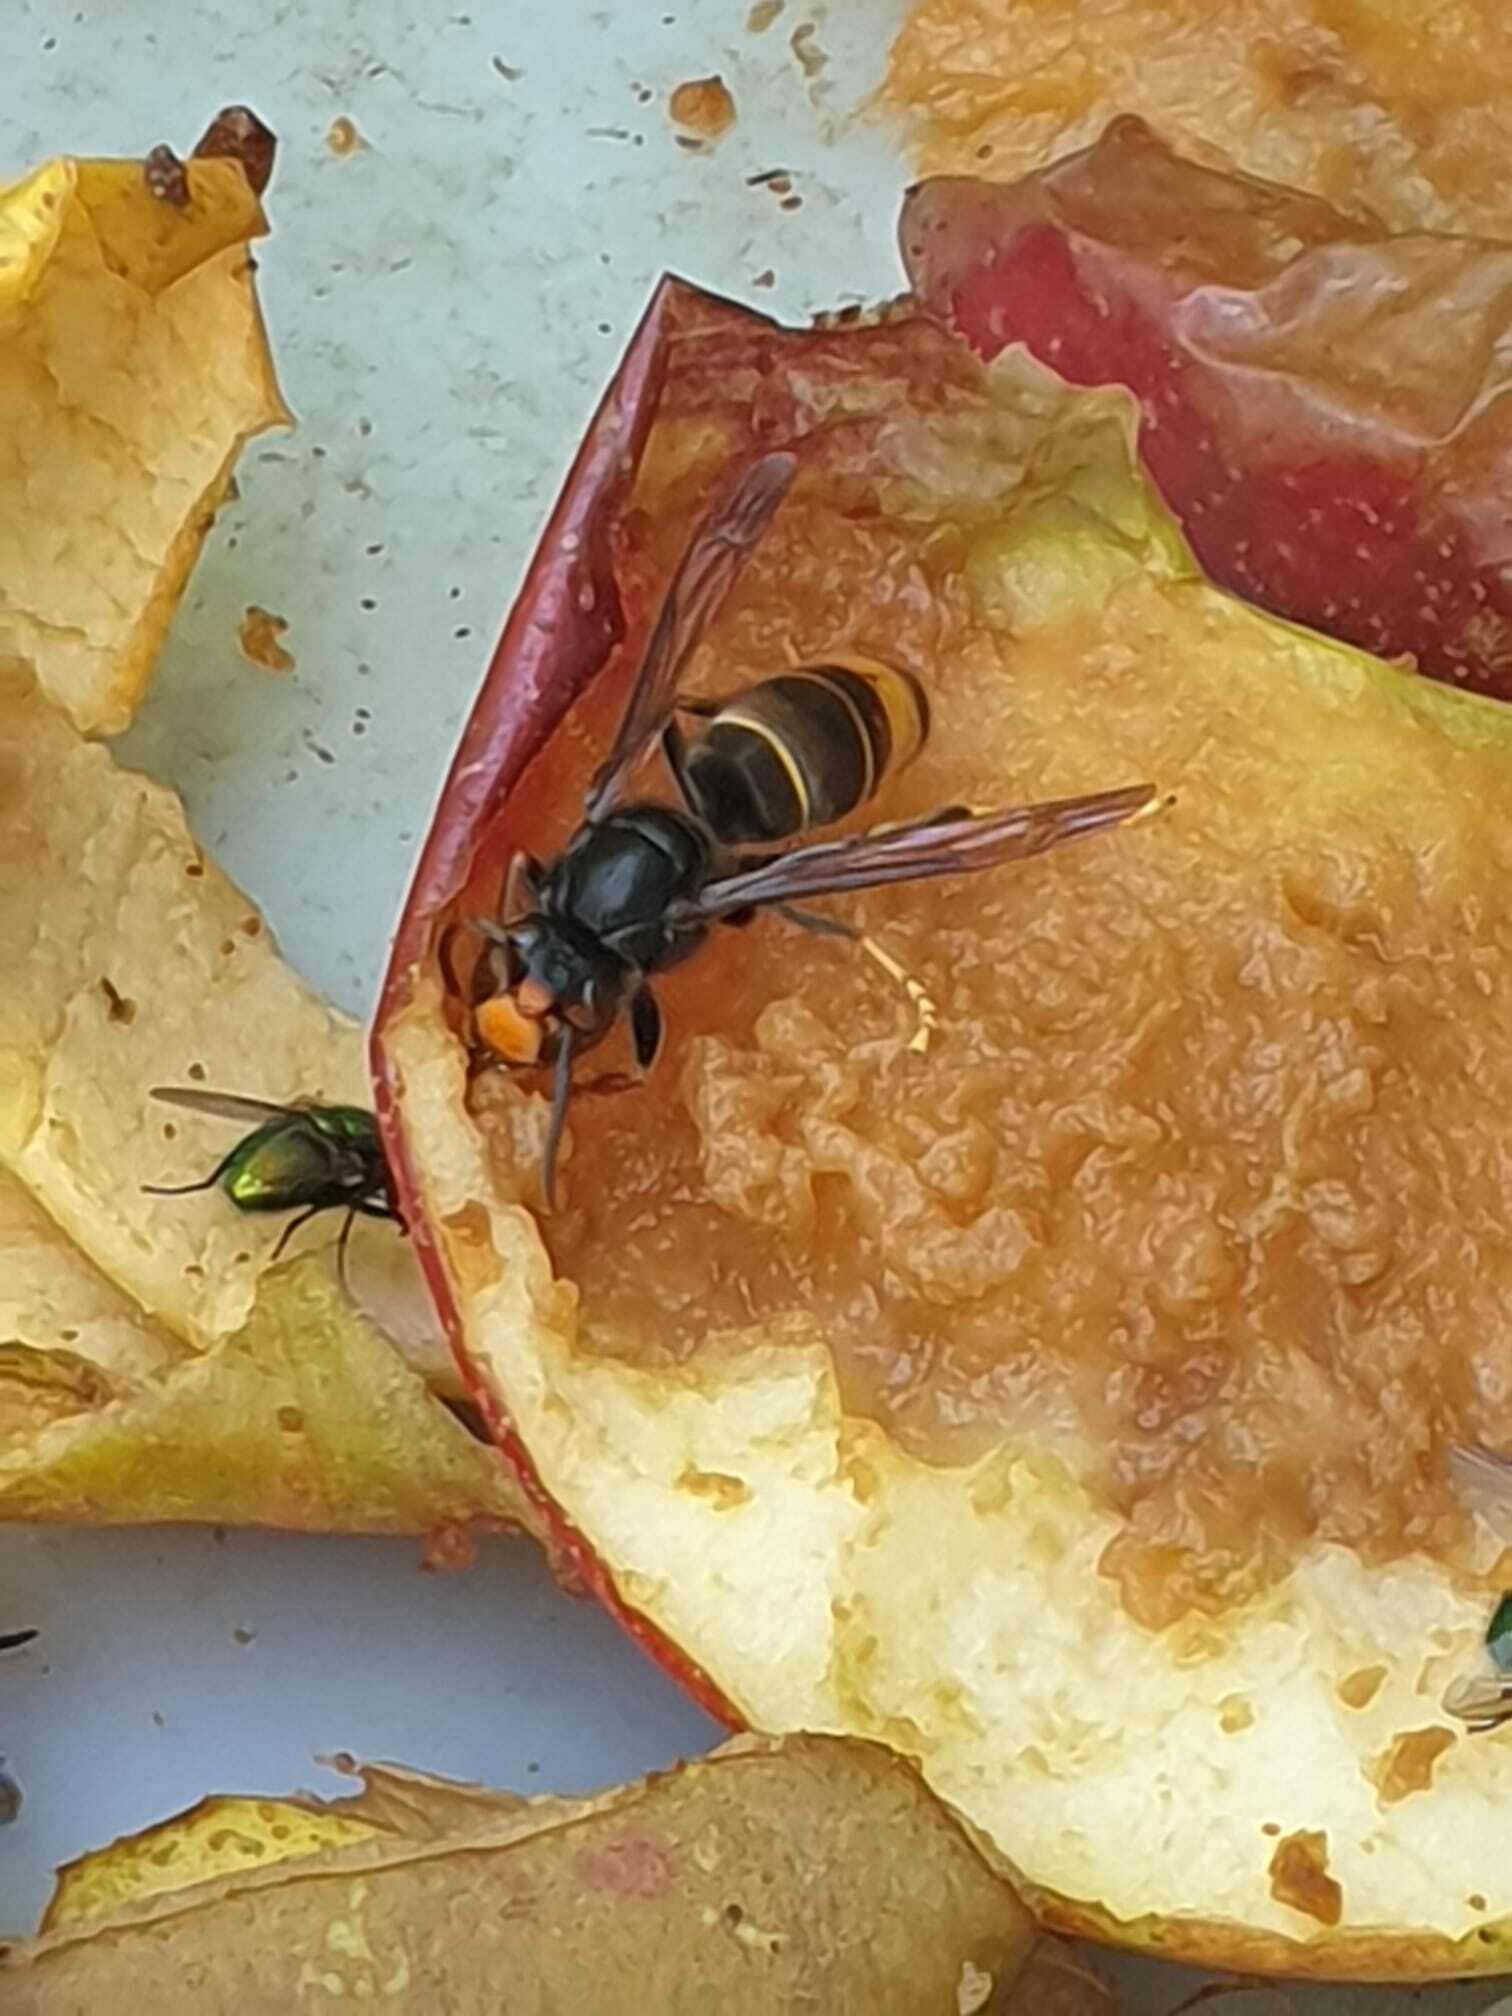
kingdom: Animalia
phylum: Arthropoda
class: Insecta
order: Hymenoptera
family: Vespidae
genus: Vespa
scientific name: Vespa velutina
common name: Asian hornet
